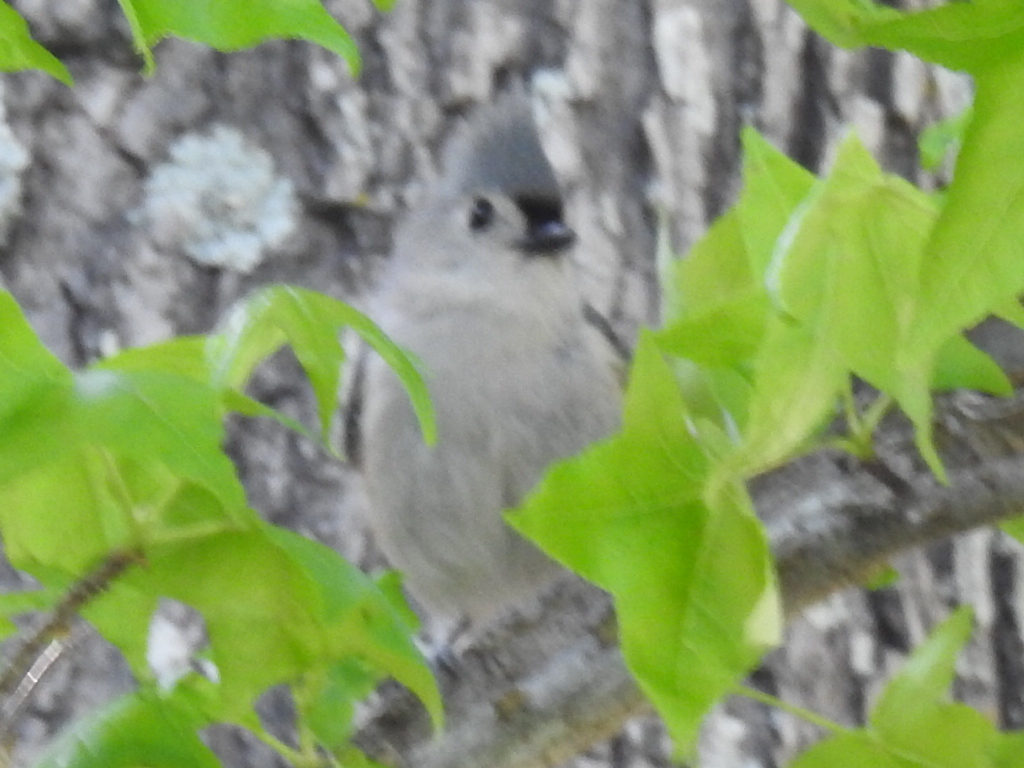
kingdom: Animalia
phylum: Chordata
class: Aves
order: Passeriformes
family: Paridae
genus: Baeolophus
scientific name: Baeolophus bicolor
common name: Tufted titmouse
